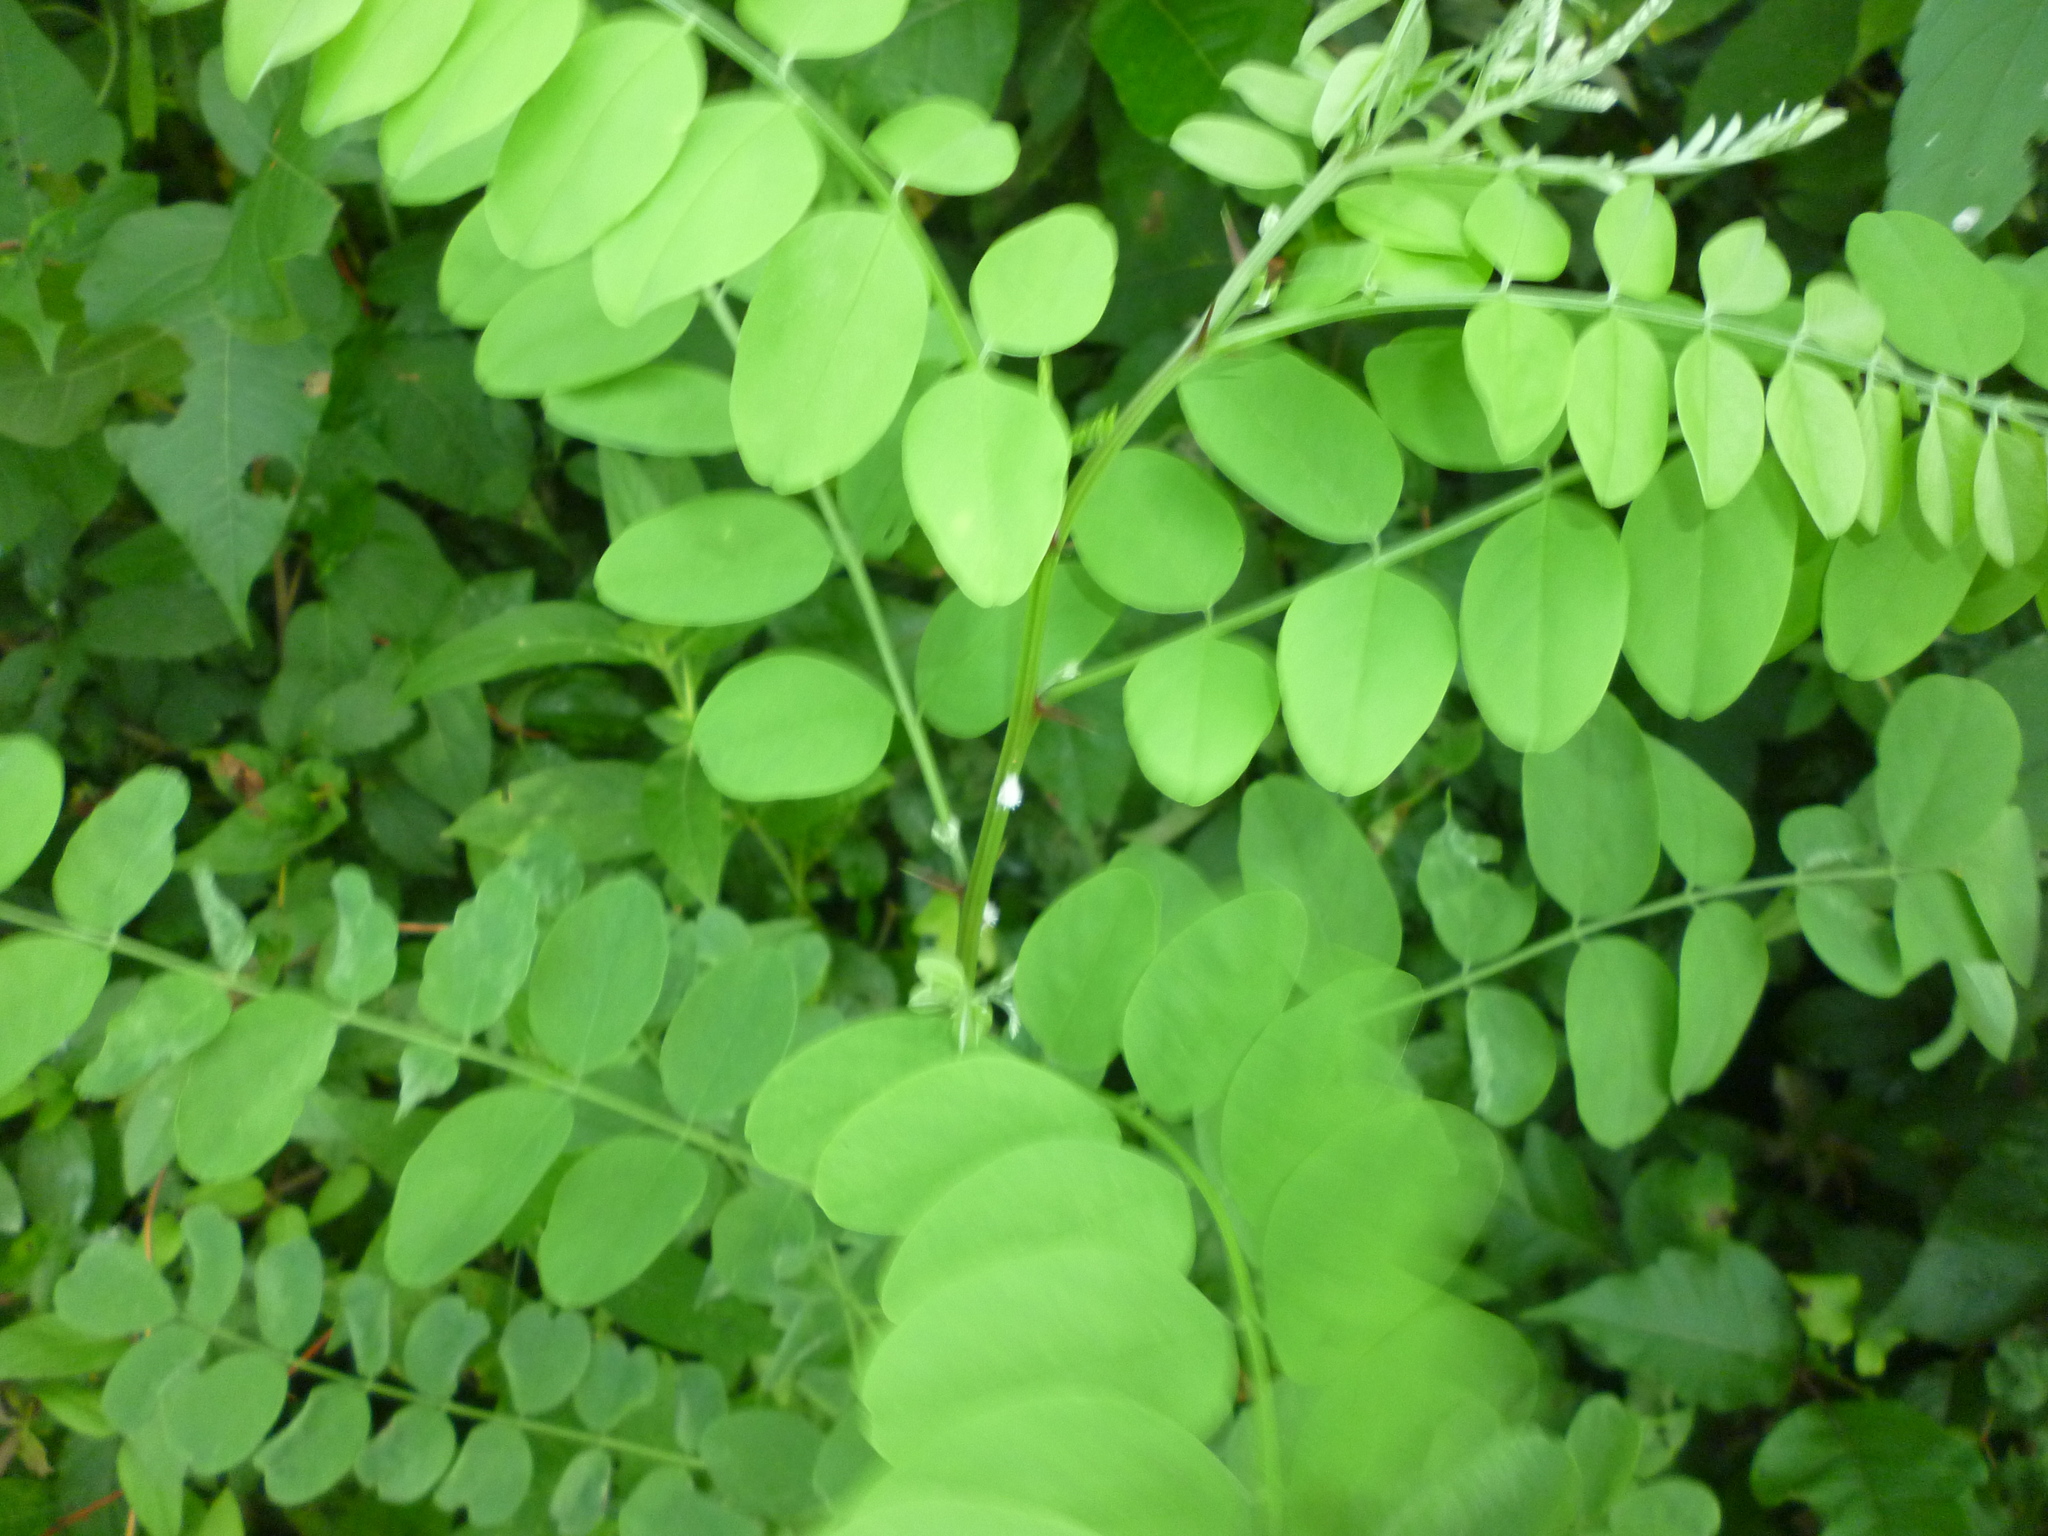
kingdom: Plantae
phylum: Tracheophyta
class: Magnoliopsida
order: Fabales
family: Fabaceae
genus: Robinia
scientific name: Robinia pseudoacacia
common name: Black locust
